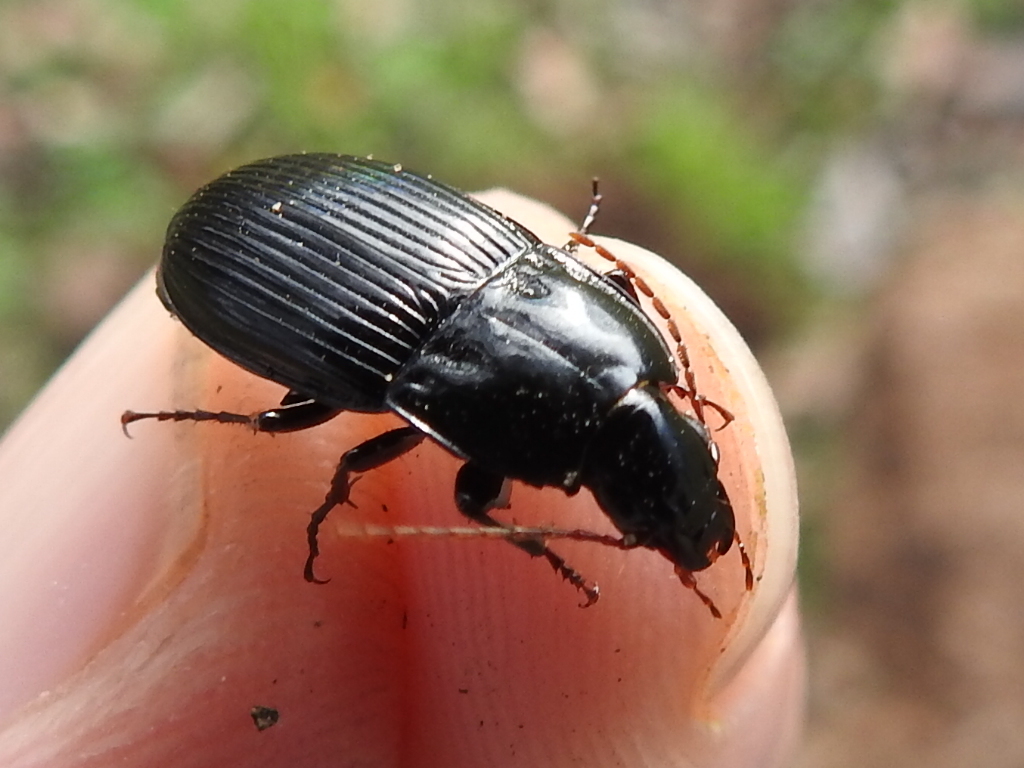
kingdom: Animalia
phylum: Arthropoda
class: Insecta
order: Coleoptera
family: Carabidae
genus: Abacidus
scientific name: Abacidus
